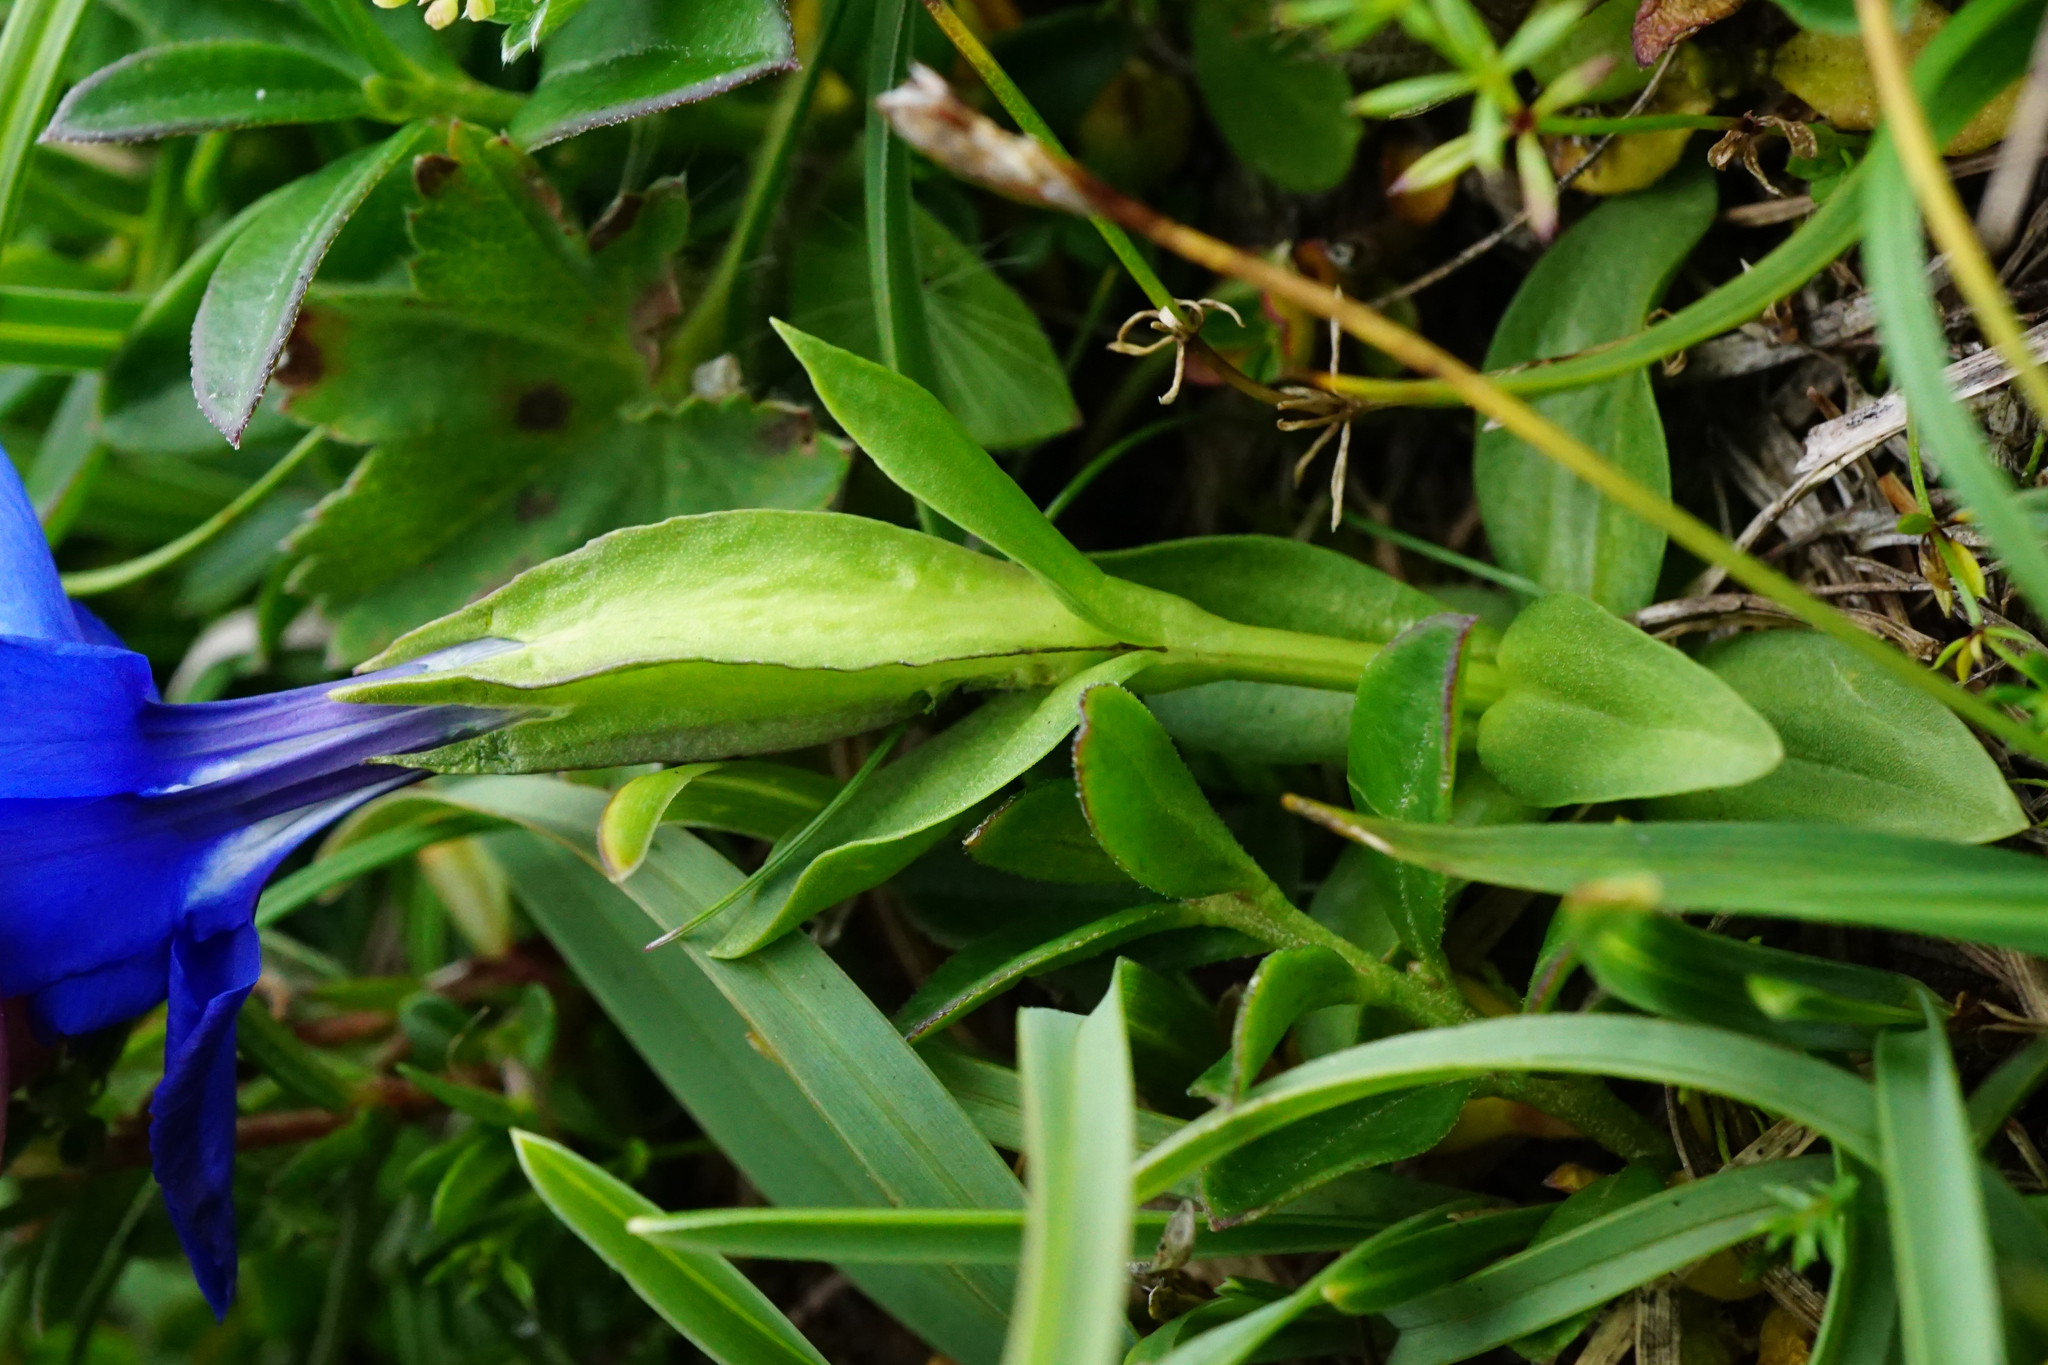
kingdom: Plantae
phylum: Tracheophyta
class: Magnoliopsida
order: Gentianales
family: Gentianaceae
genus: Gentiana
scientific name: Gentiana verna
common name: Spring gentian
